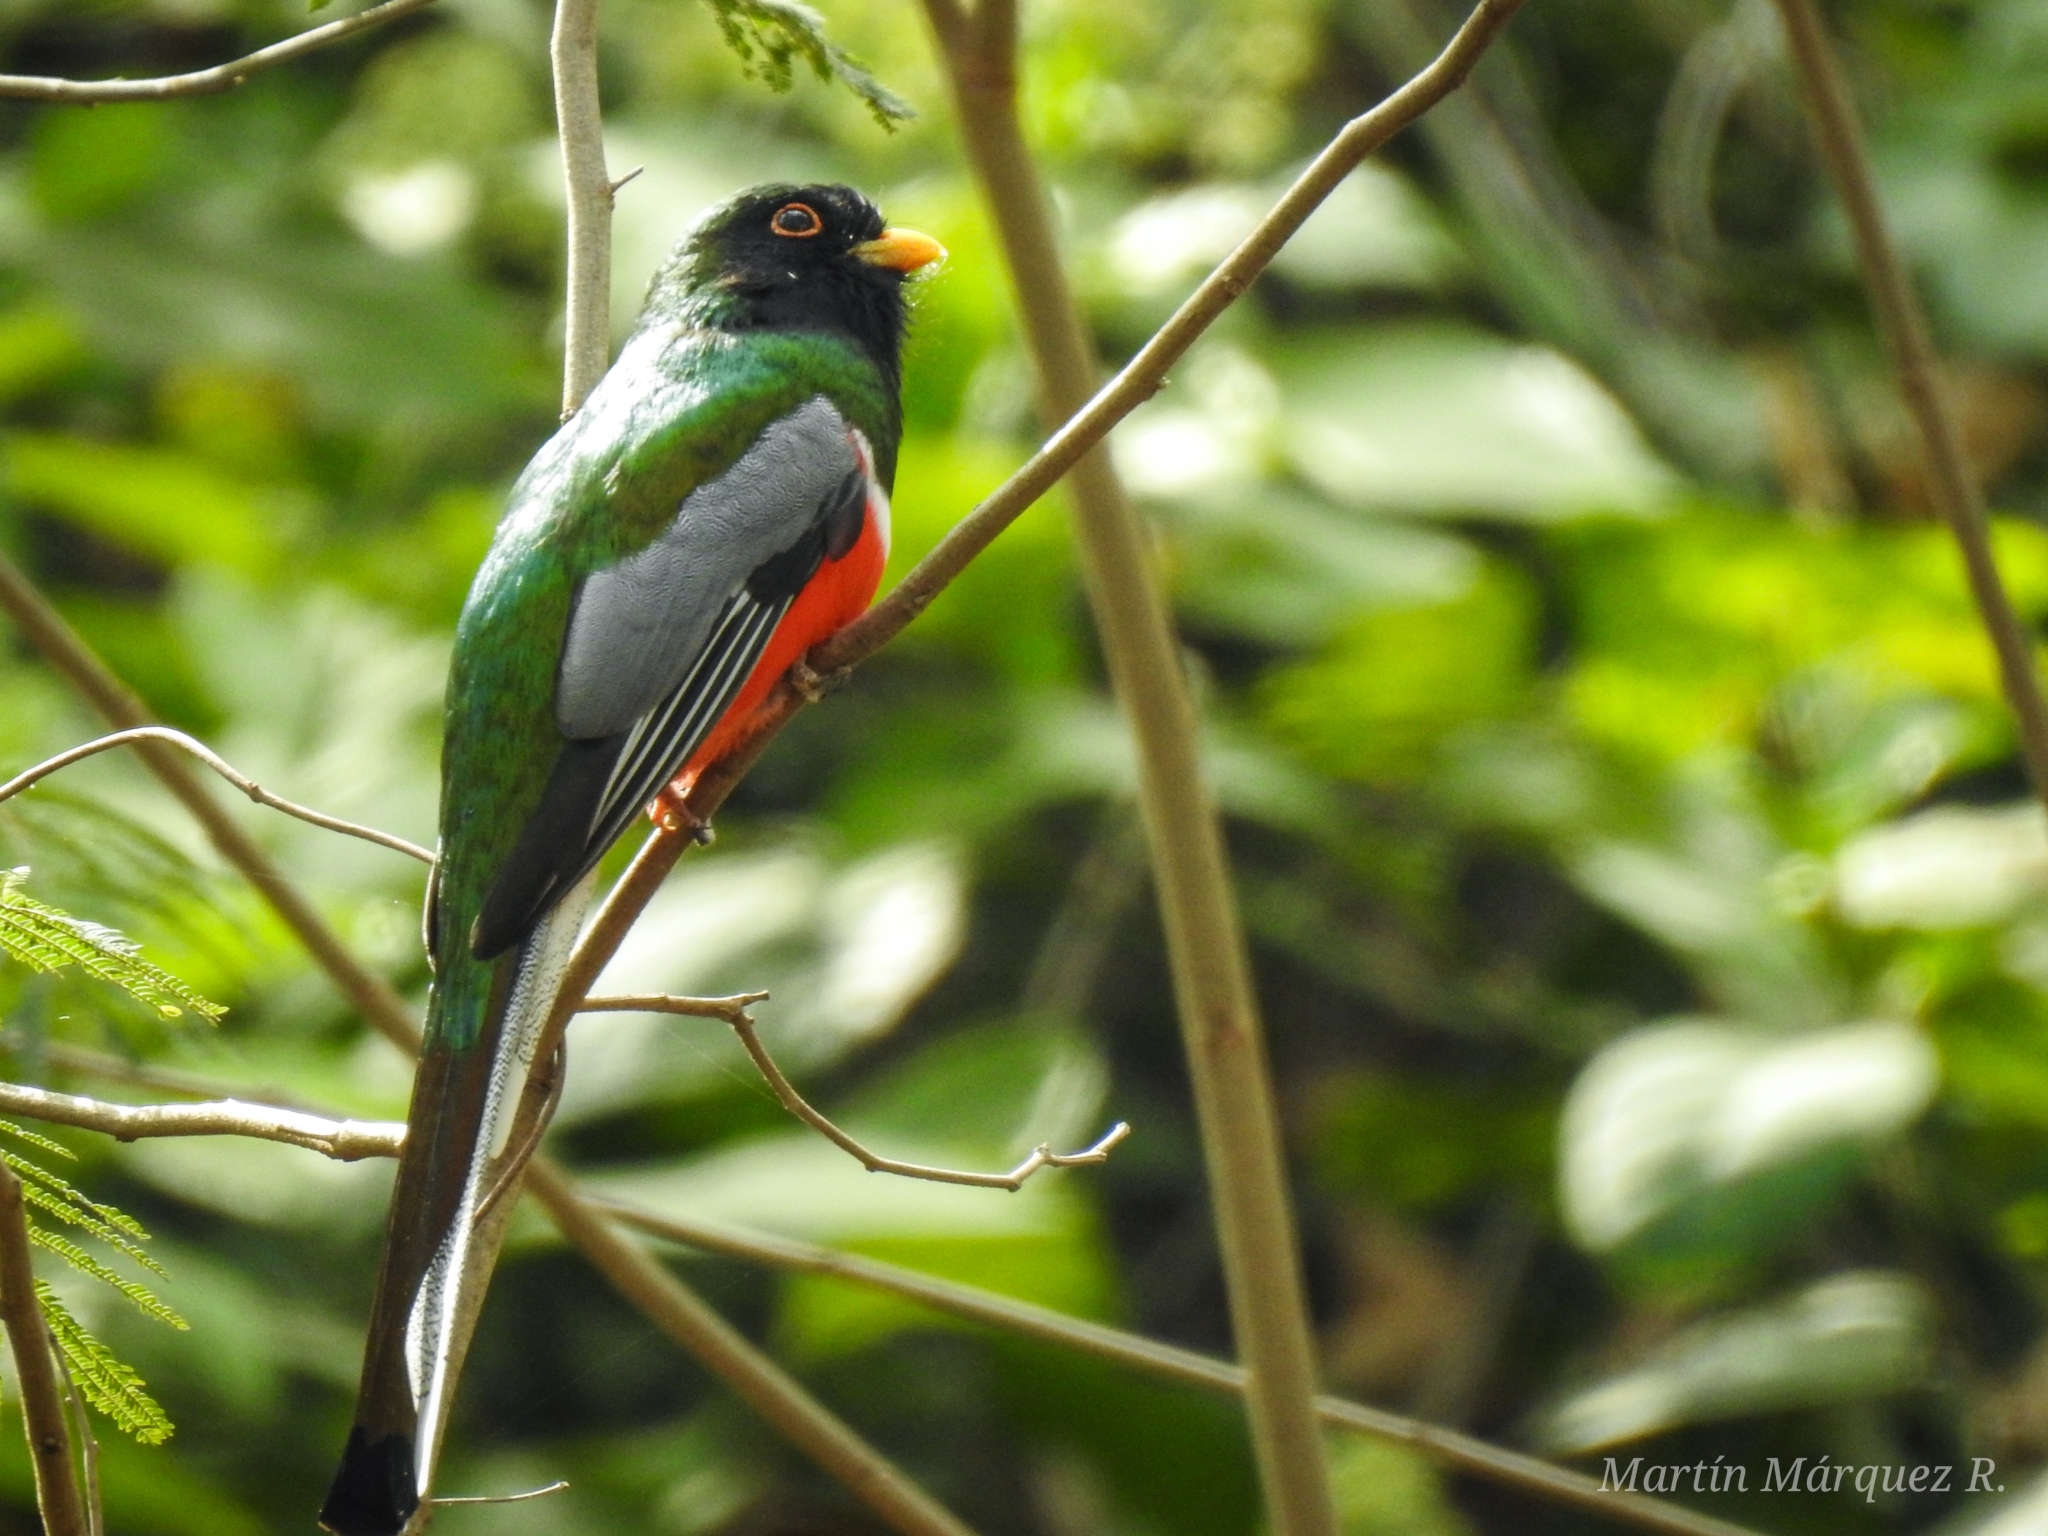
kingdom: Animalia
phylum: Chordata
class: Aves
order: Trogoniformes
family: Trogonidae
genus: Trogon
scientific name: Trogon elegans
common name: Elegant trogon
